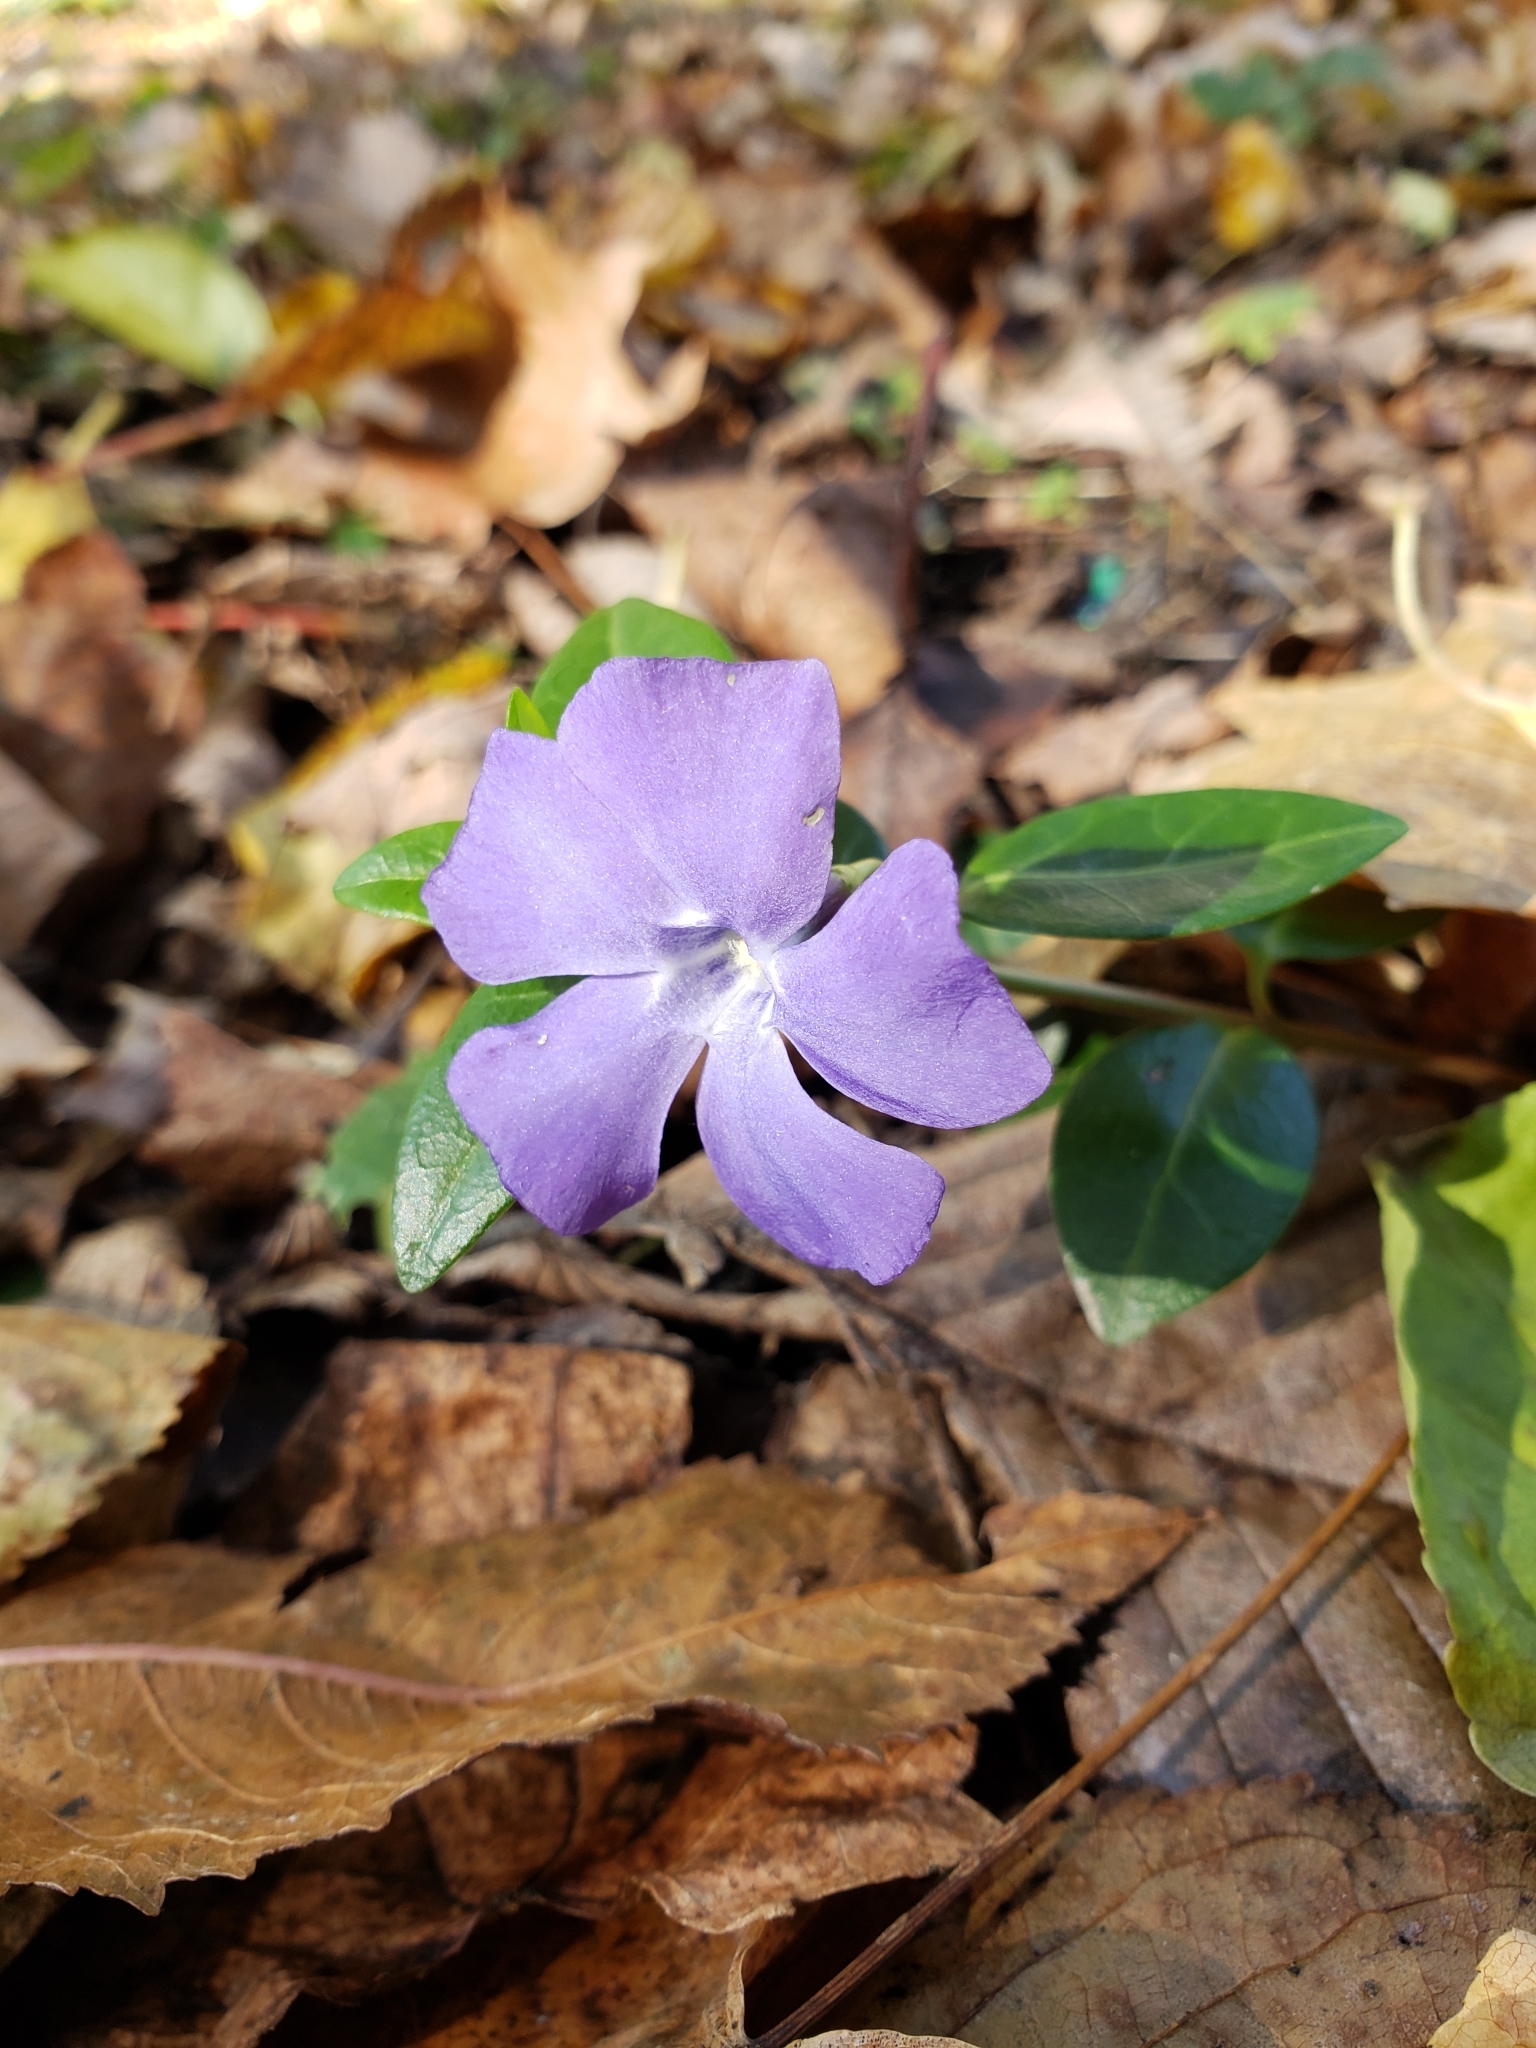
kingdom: Plantae
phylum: Tracheophyta
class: Magnoliopsida
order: Gentianales
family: Apocynaceae
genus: Vinca
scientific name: Vinca minor
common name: Lesser periwinkle
